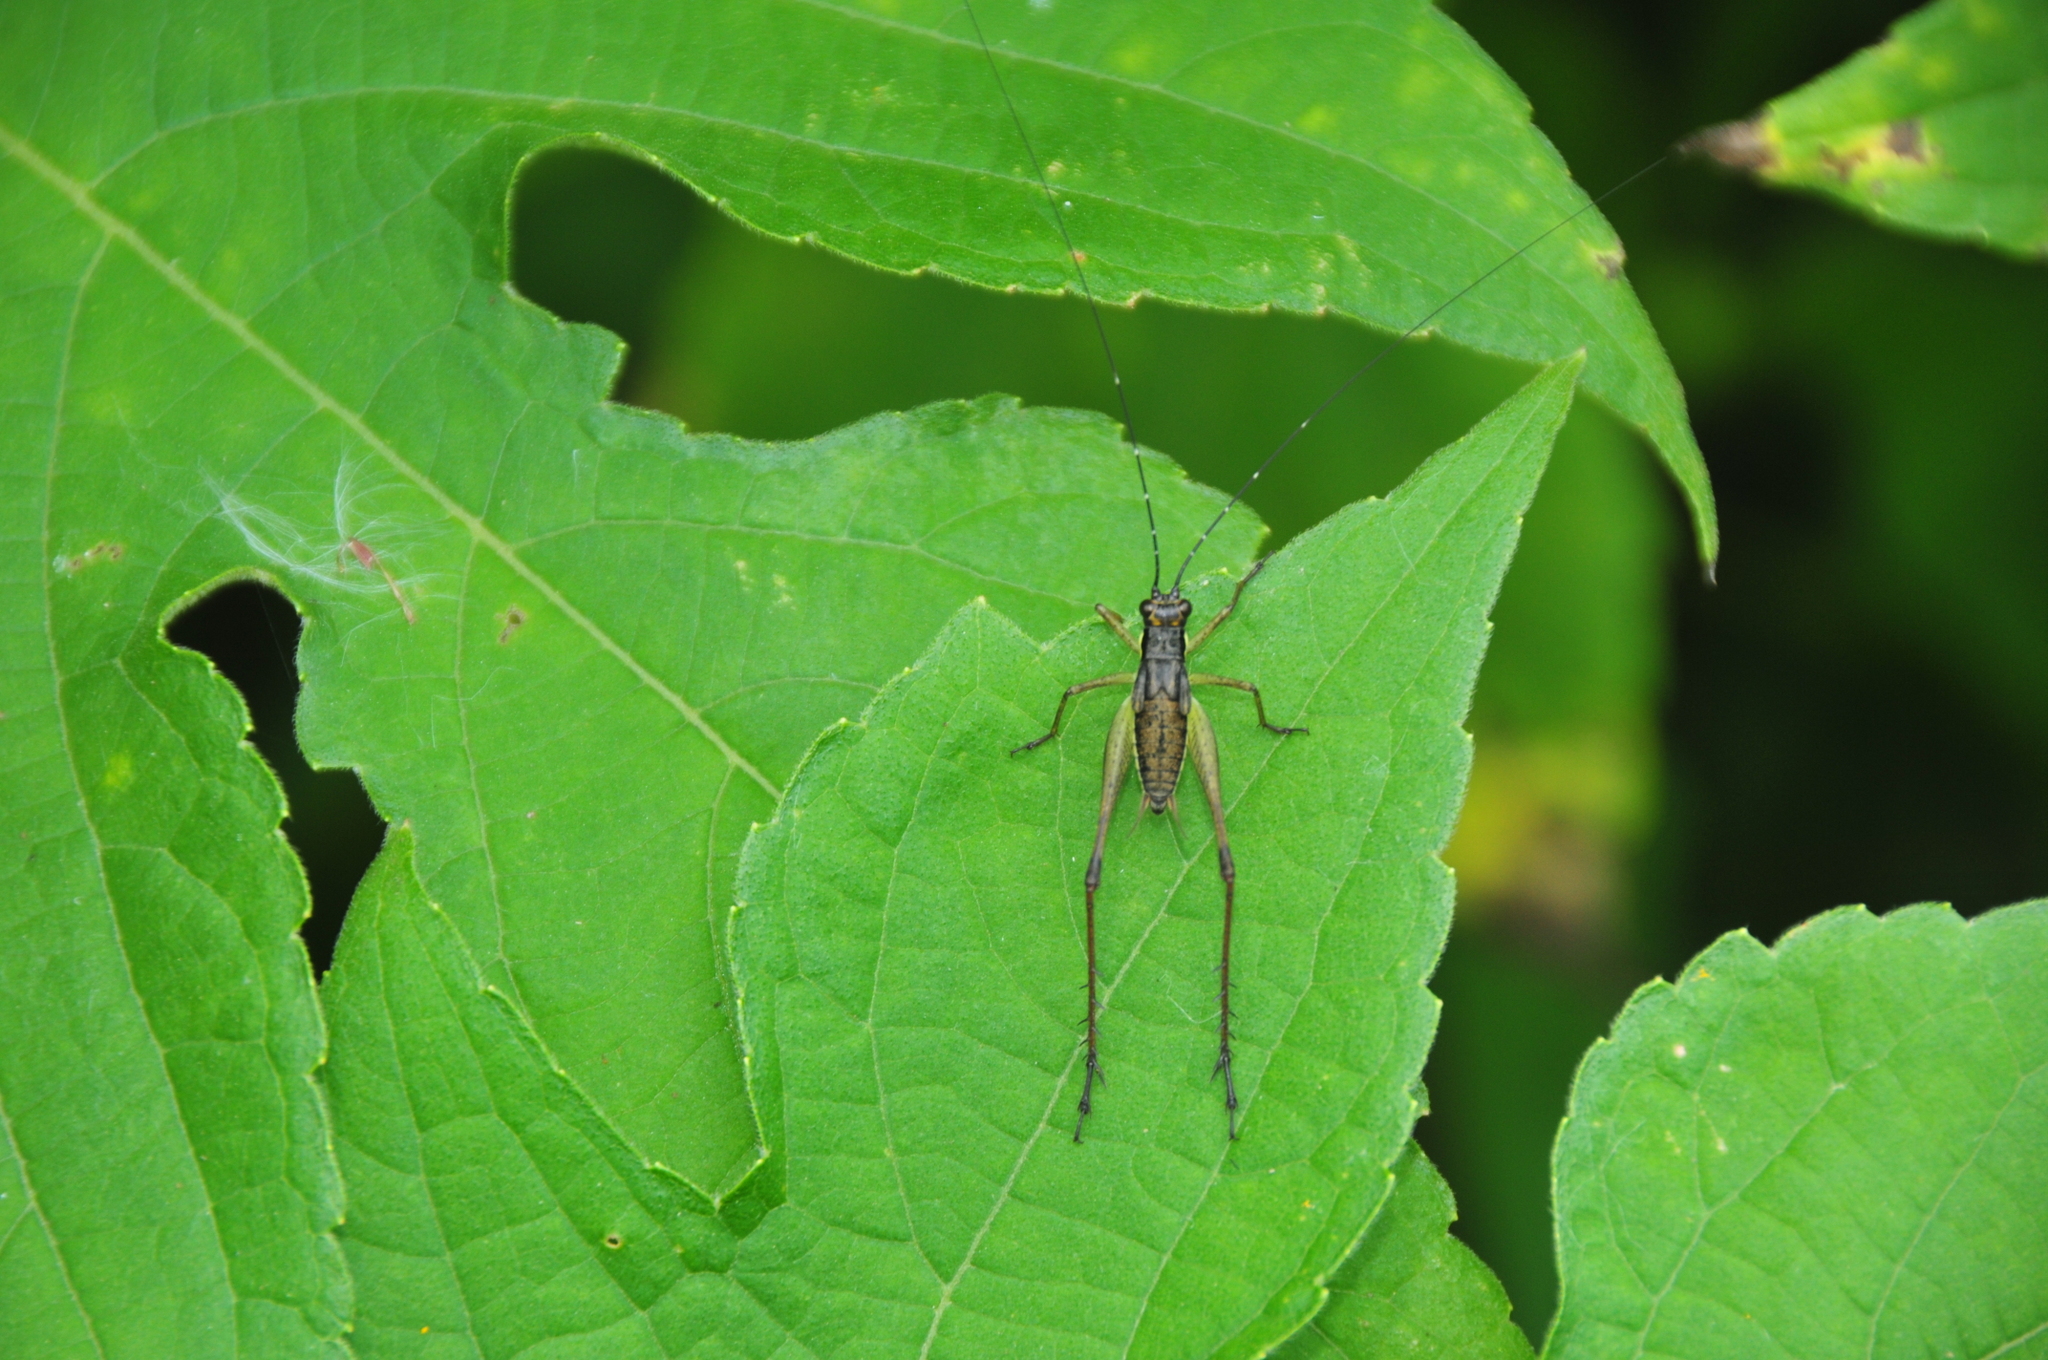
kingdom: Animalia
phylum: Arthropoda
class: Insecta
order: Orthoptera
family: Gryllidae
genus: Nisitrus
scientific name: Nisitrus insignis
